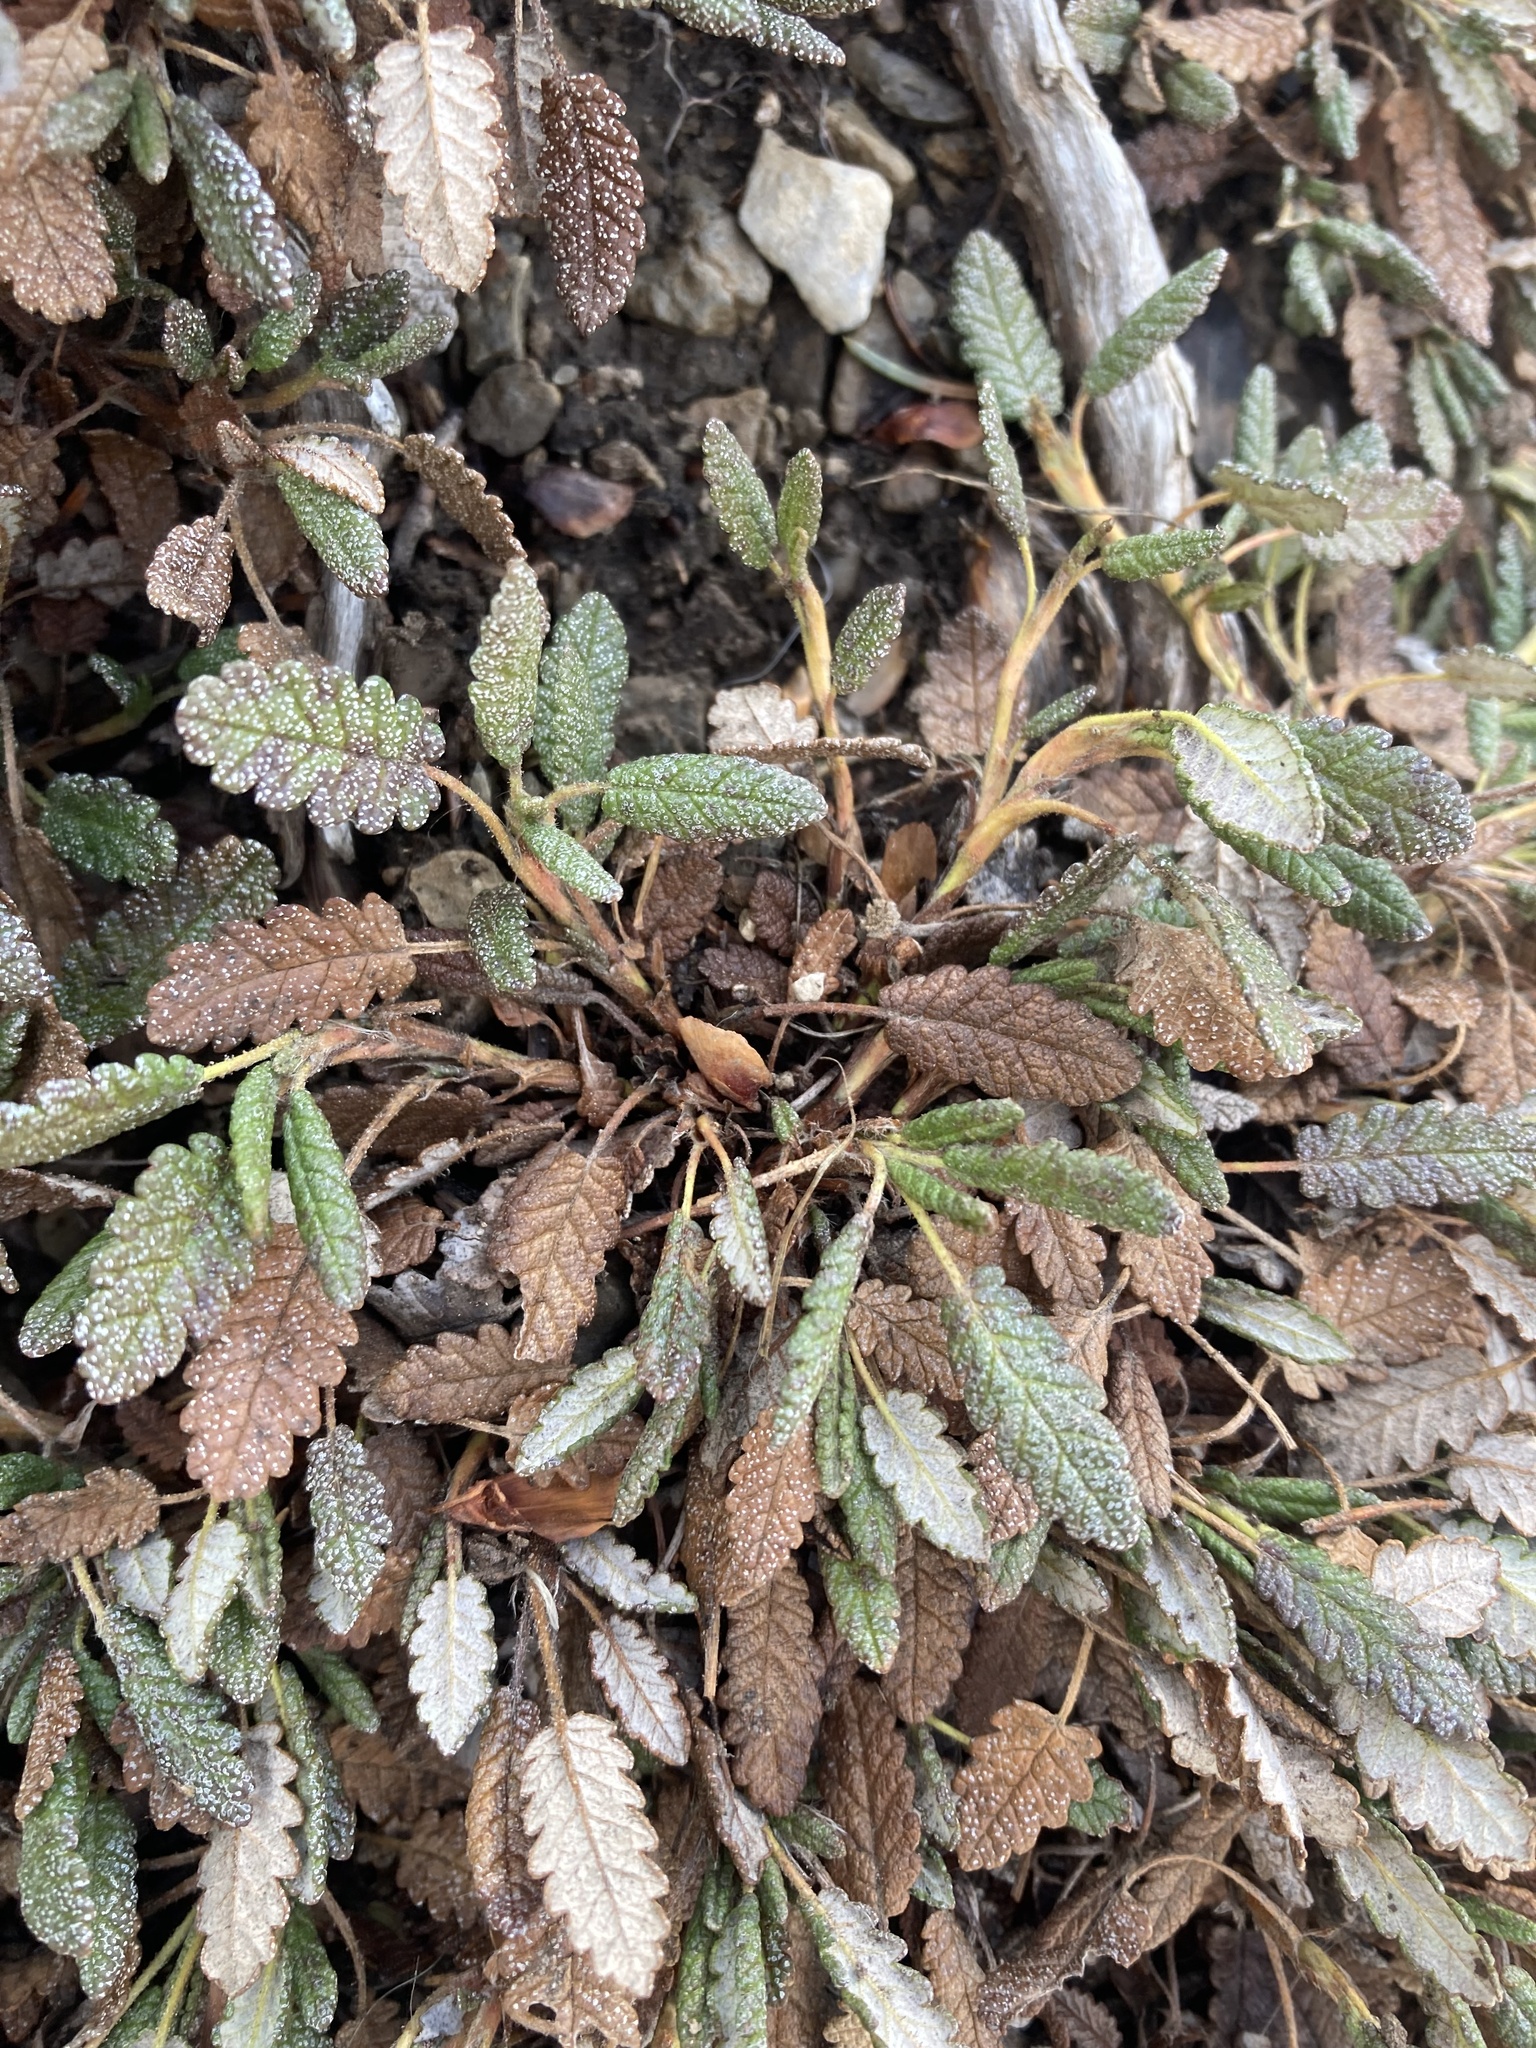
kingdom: Plantae
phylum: Tracheophyta
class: Magnoliopsida
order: Rosales
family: Rosaceae
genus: Dryas
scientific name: Dryas octopetala
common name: Eight-petal mountain-avens
